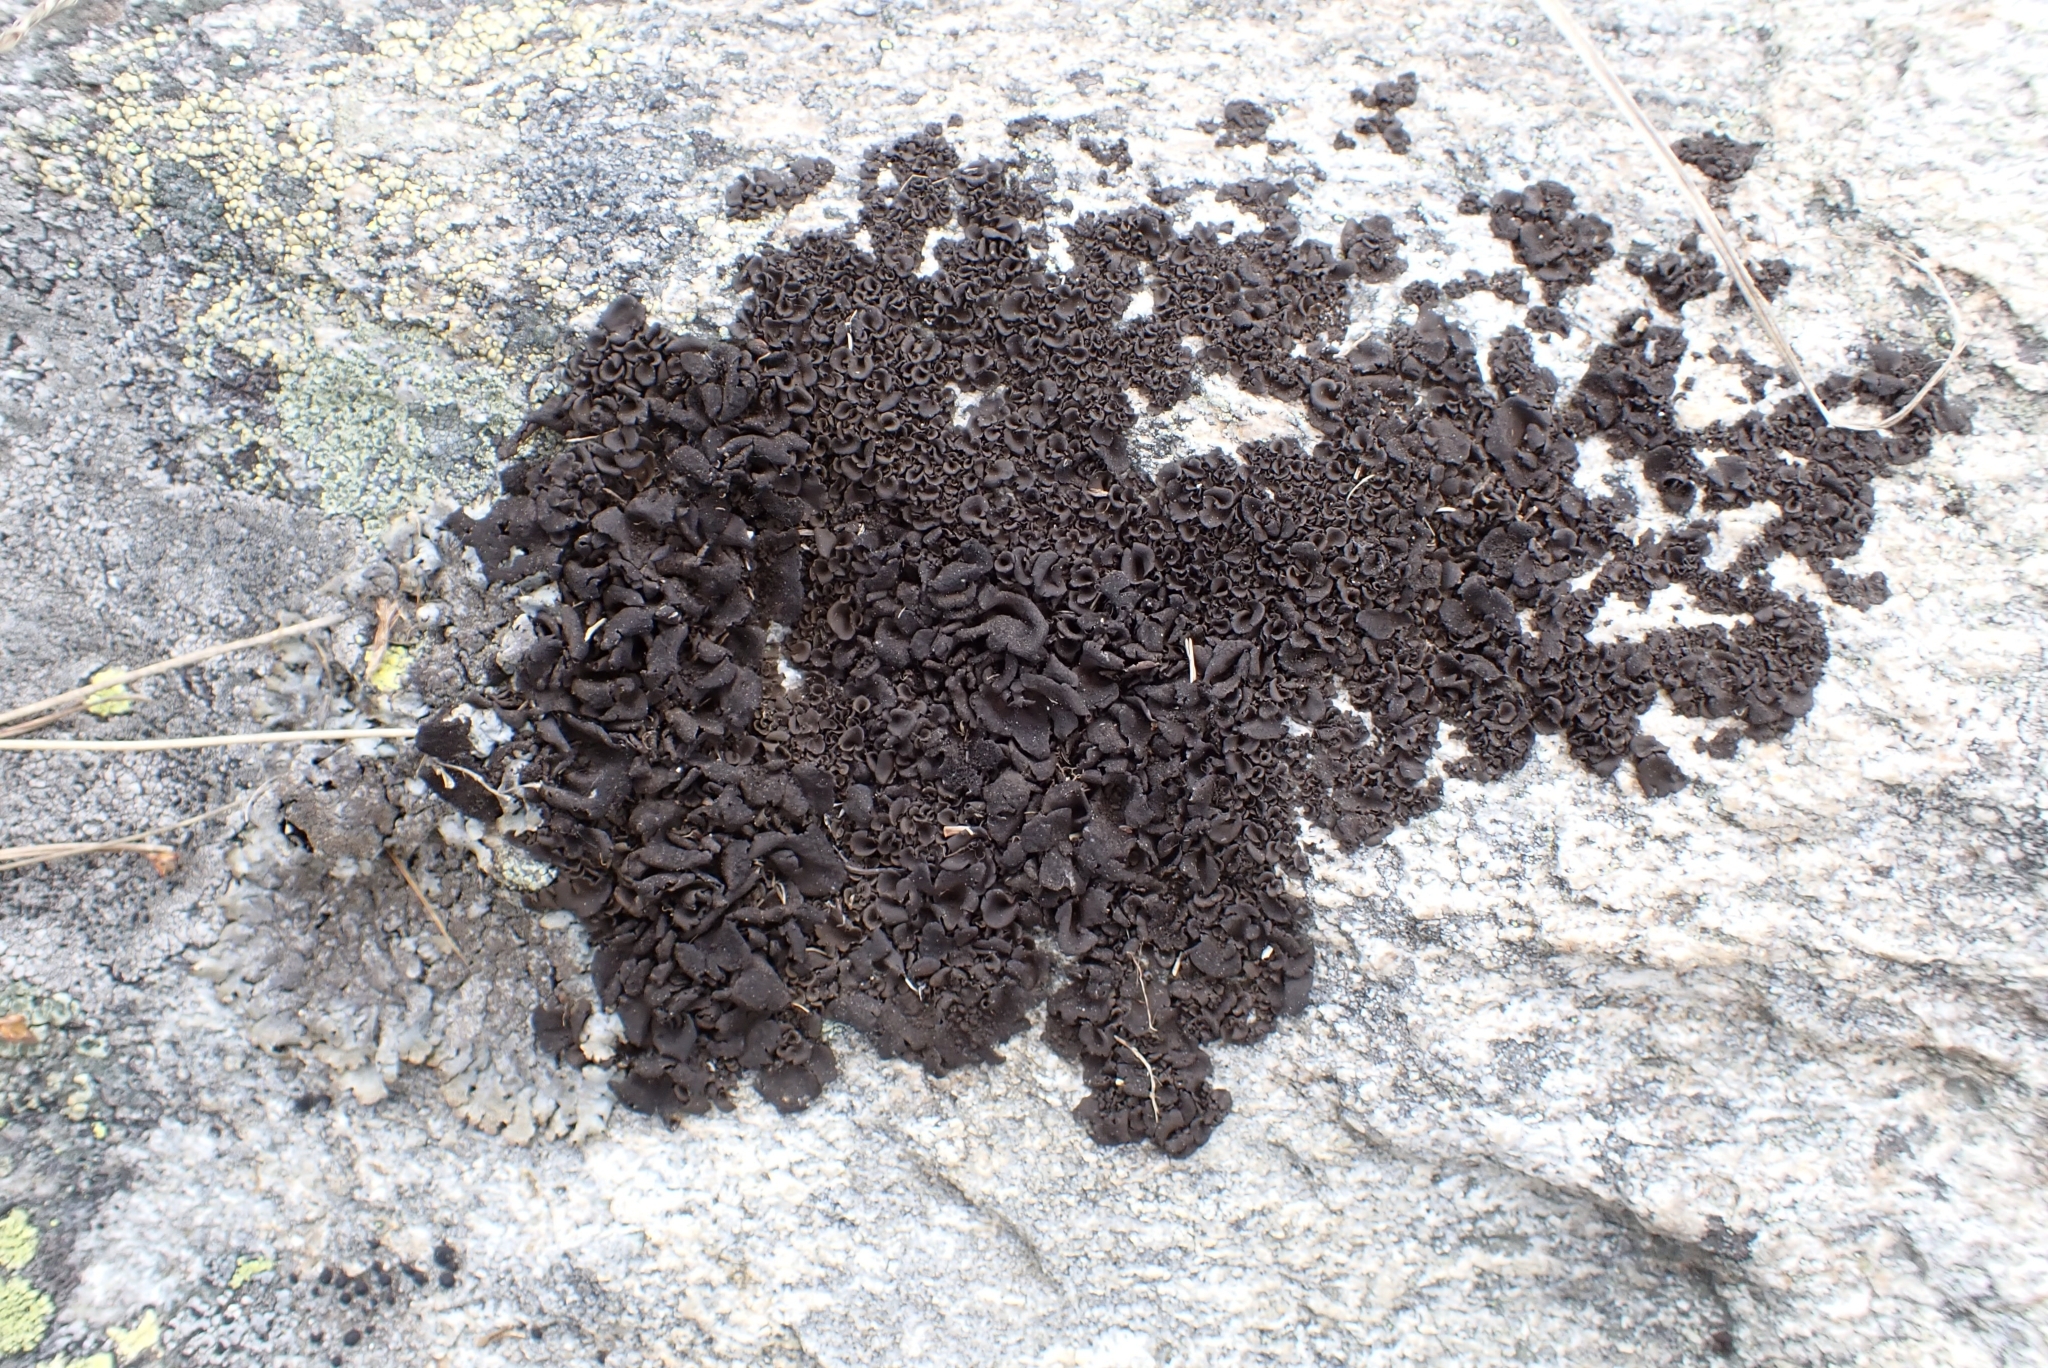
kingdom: Fungi
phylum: Ascomycota
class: Lecanoromycetes
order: Umbilicariales
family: Umbilicariaceae
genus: Umbilicaria
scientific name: Umbilicaria deusta
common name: Peppered rock tripe
